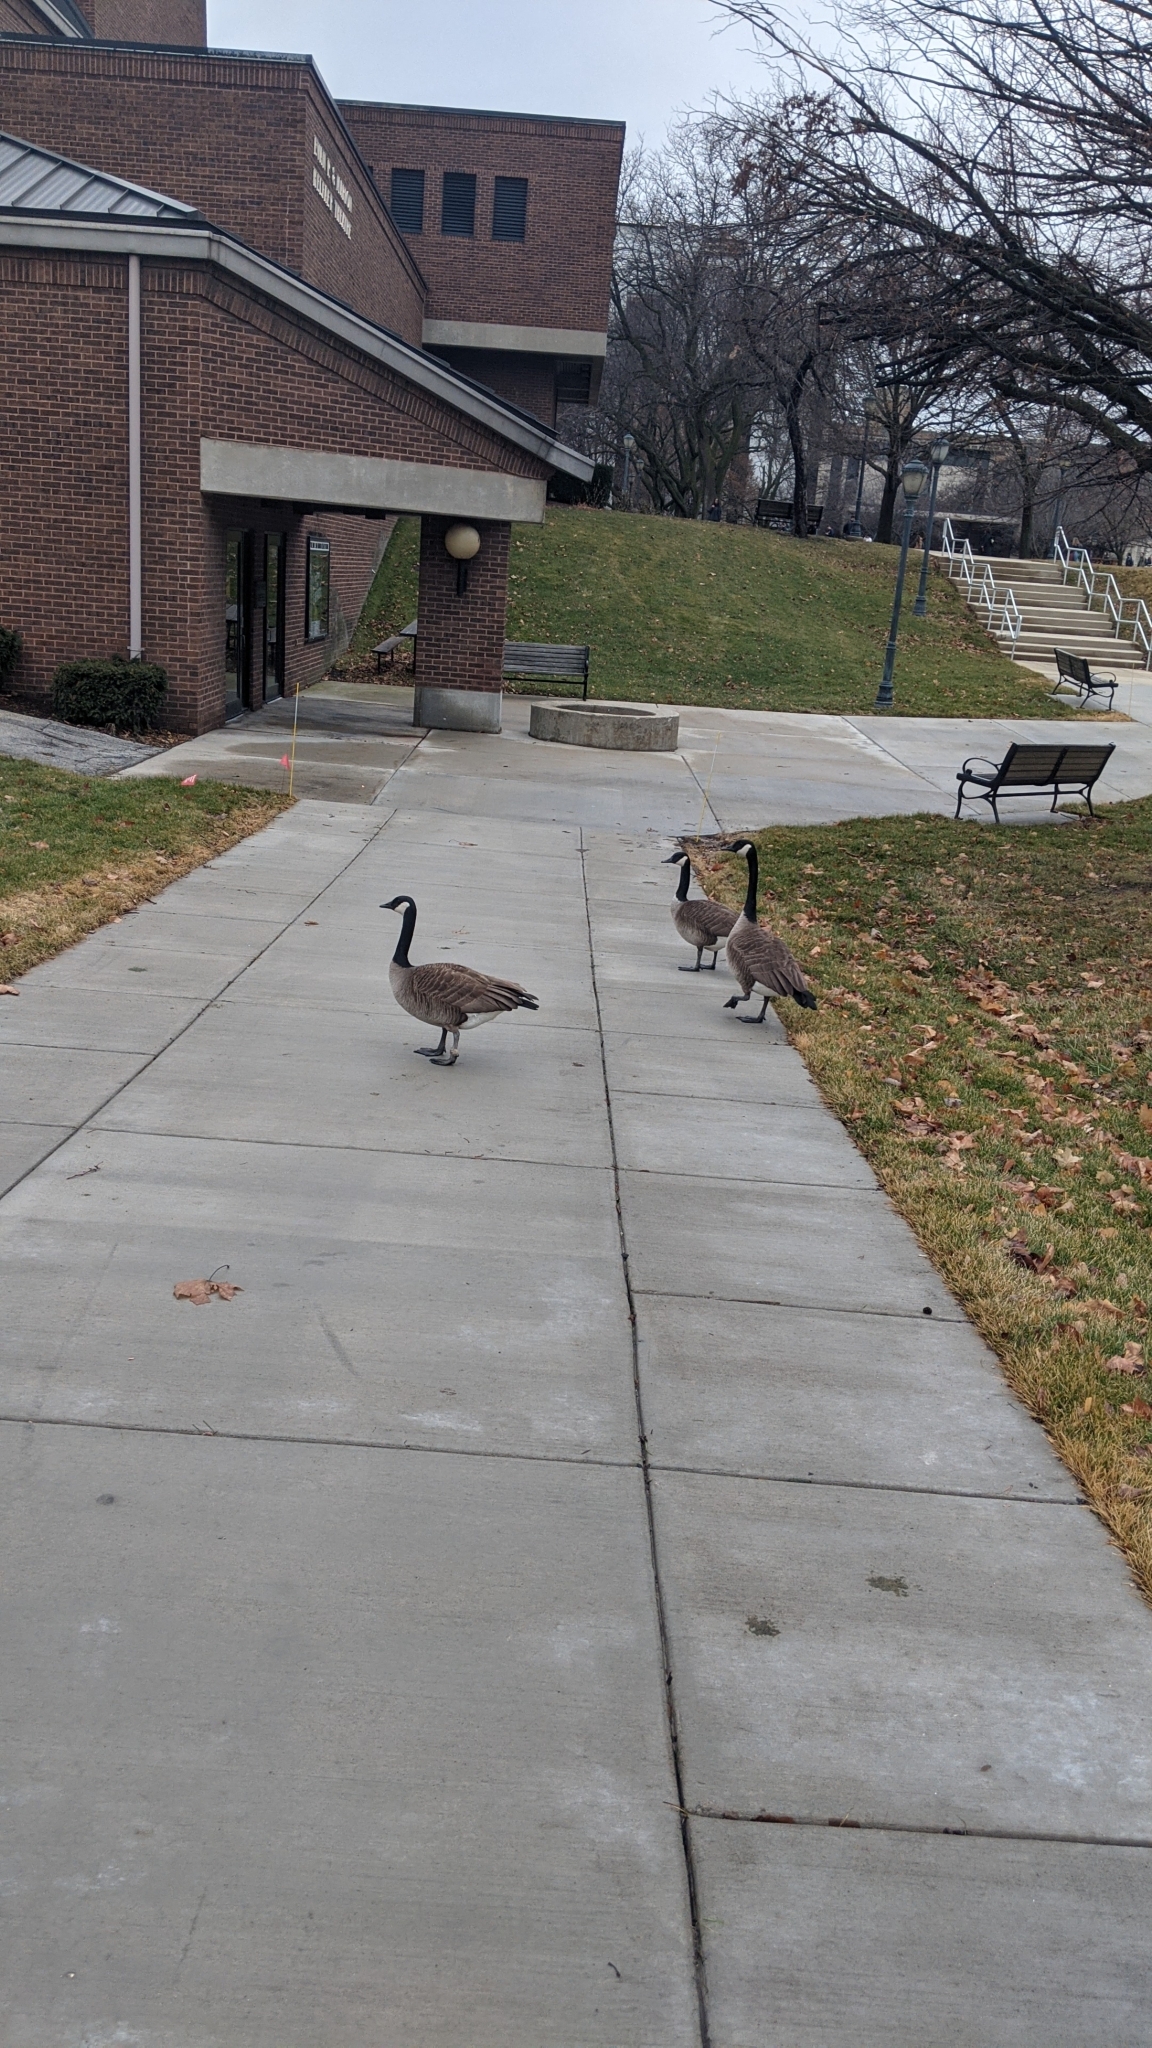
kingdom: Animalia
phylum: Chordata
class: Aves
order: Anseriformes
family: Anatidae
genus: Branta
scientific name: Branta canadensis
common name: Canada goose
